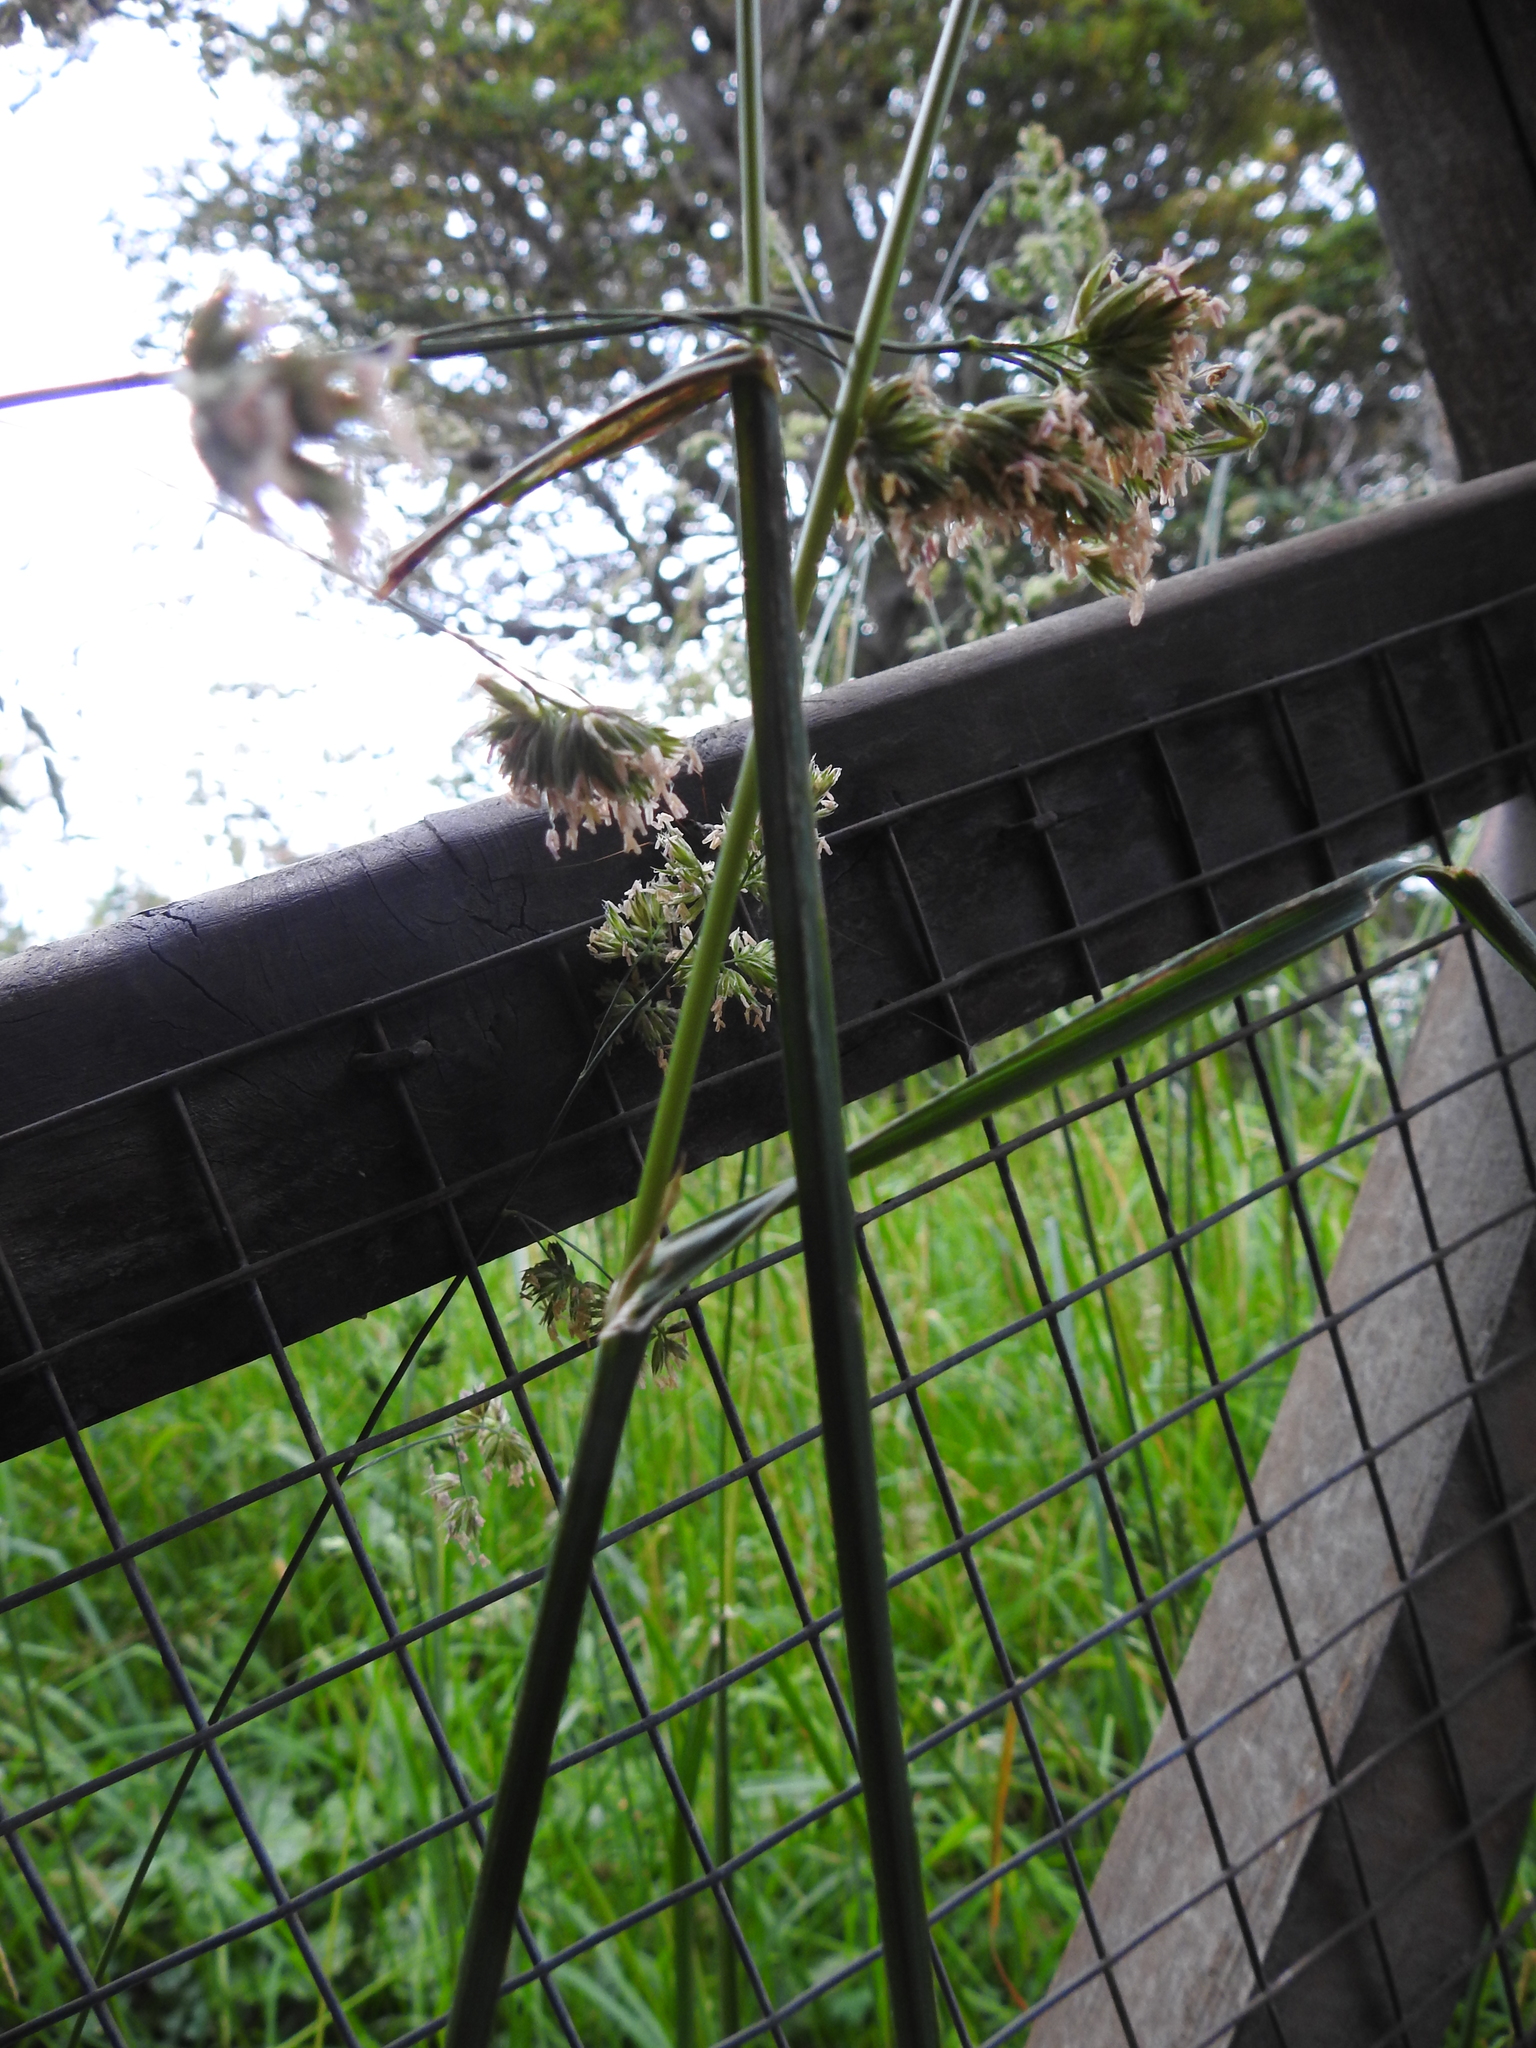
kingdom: Plantae
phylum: Tracheophyta
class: Liliopsida
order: Poales
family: Poaceae
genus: Dactylis
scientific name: Dactylis glomerata
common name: Orchardgrass
